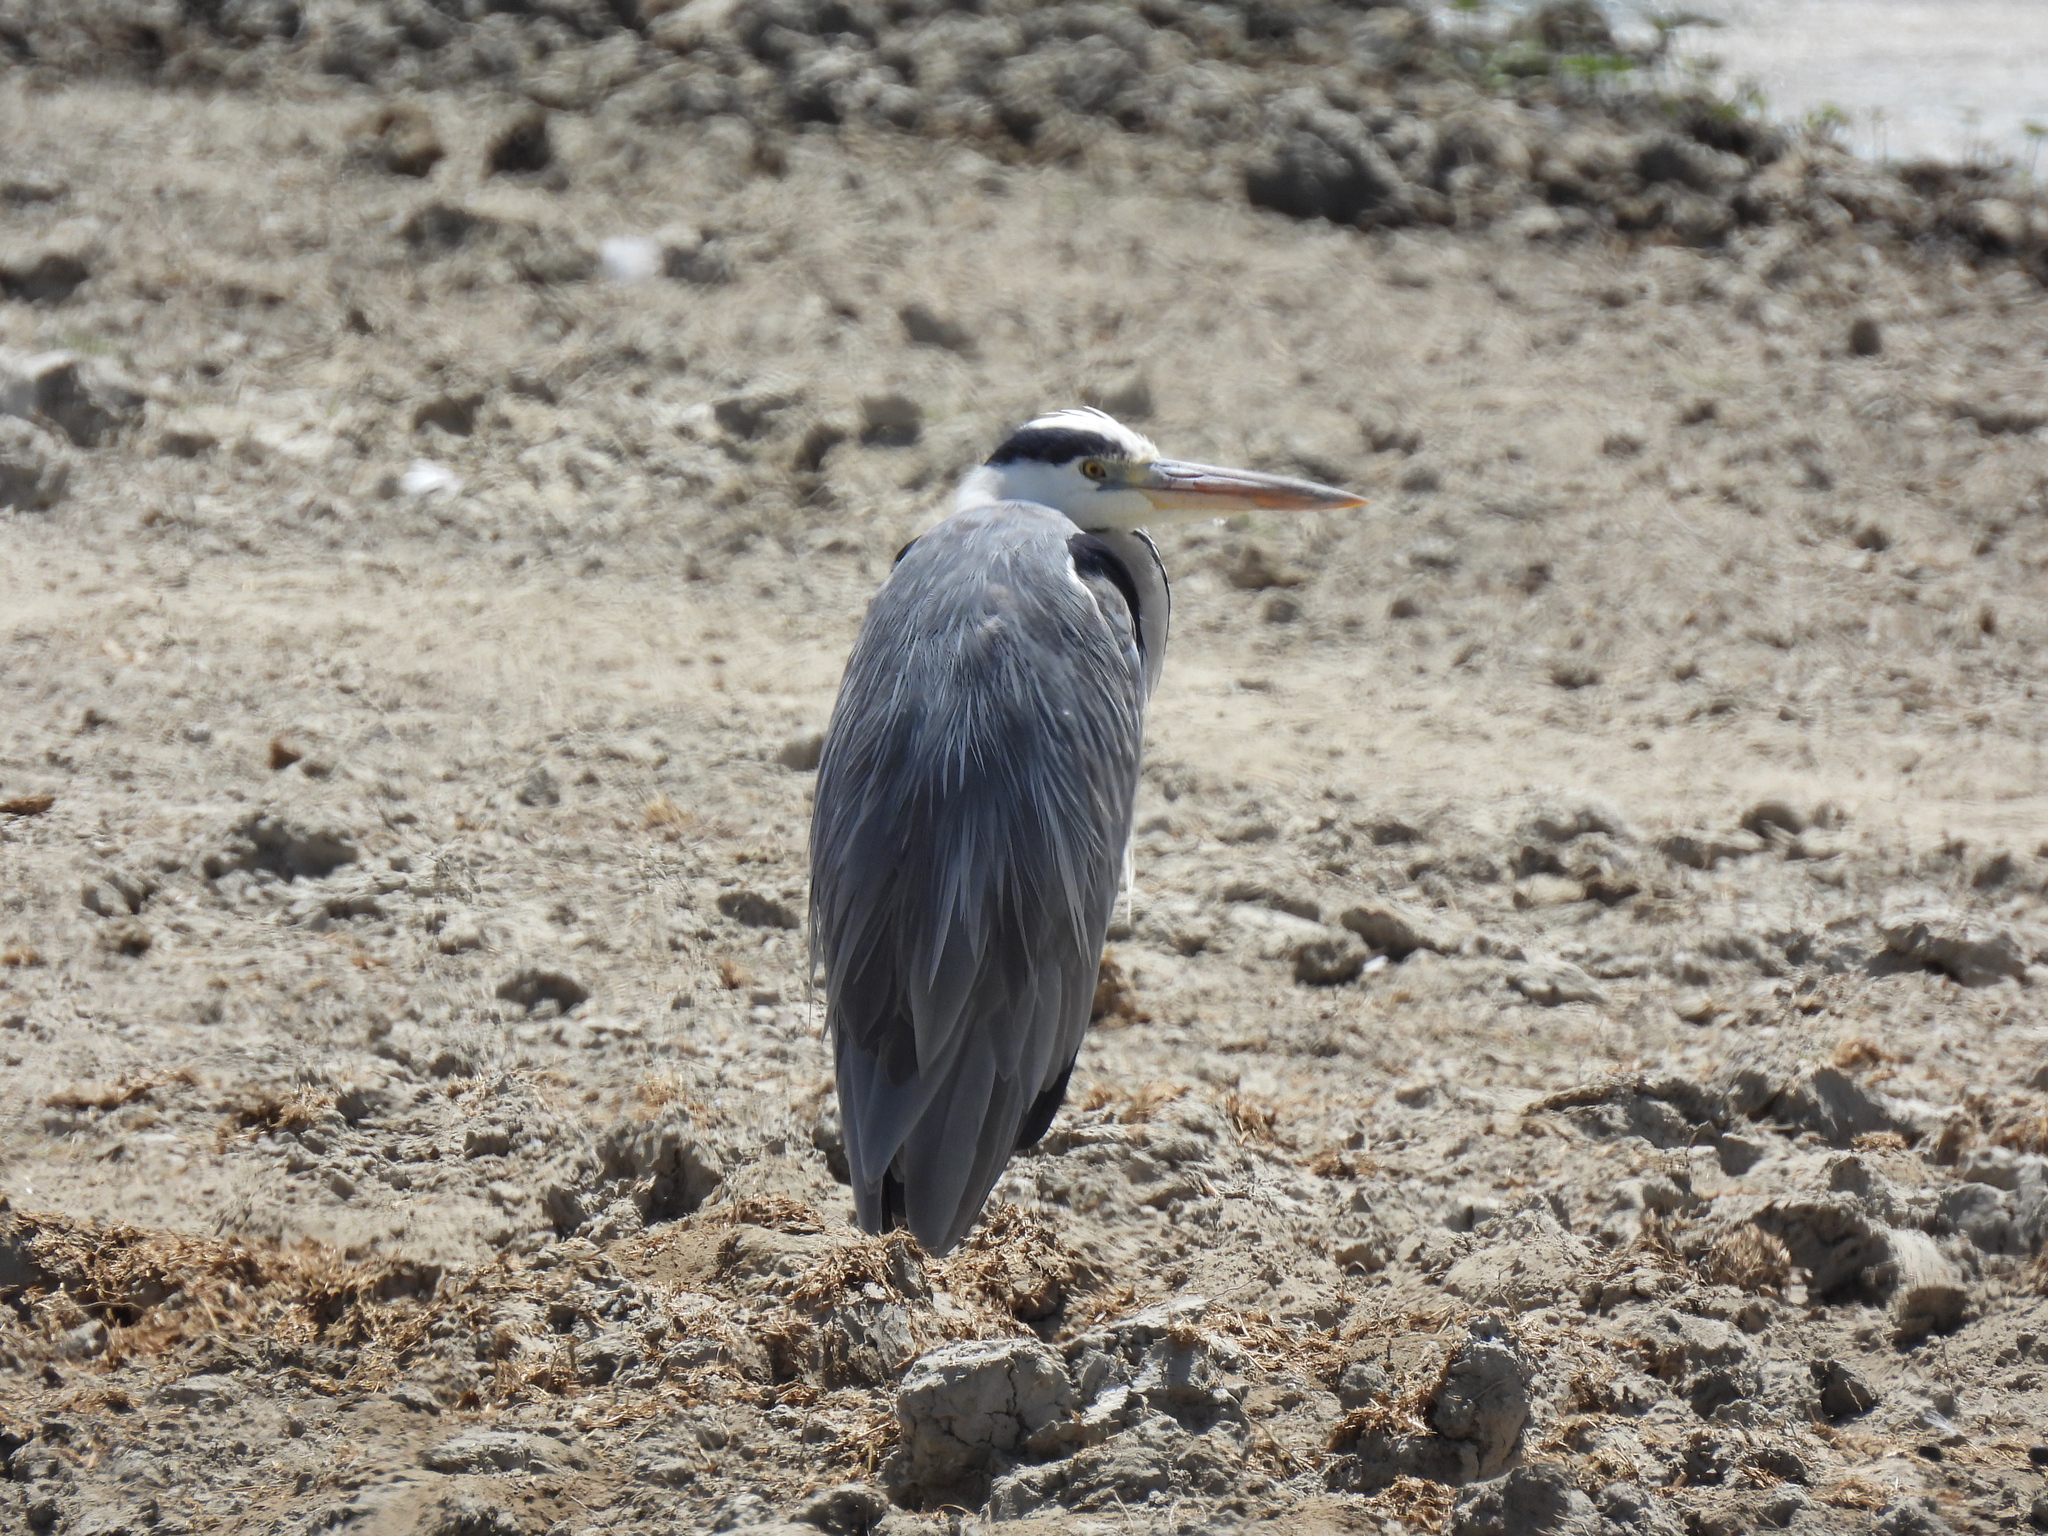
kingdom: Animalia
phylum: Chordata
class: Aves
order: Pelecaniformes
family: Ardeidae
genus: Ardea
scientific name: Ardea cinerea
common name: Grey heron
